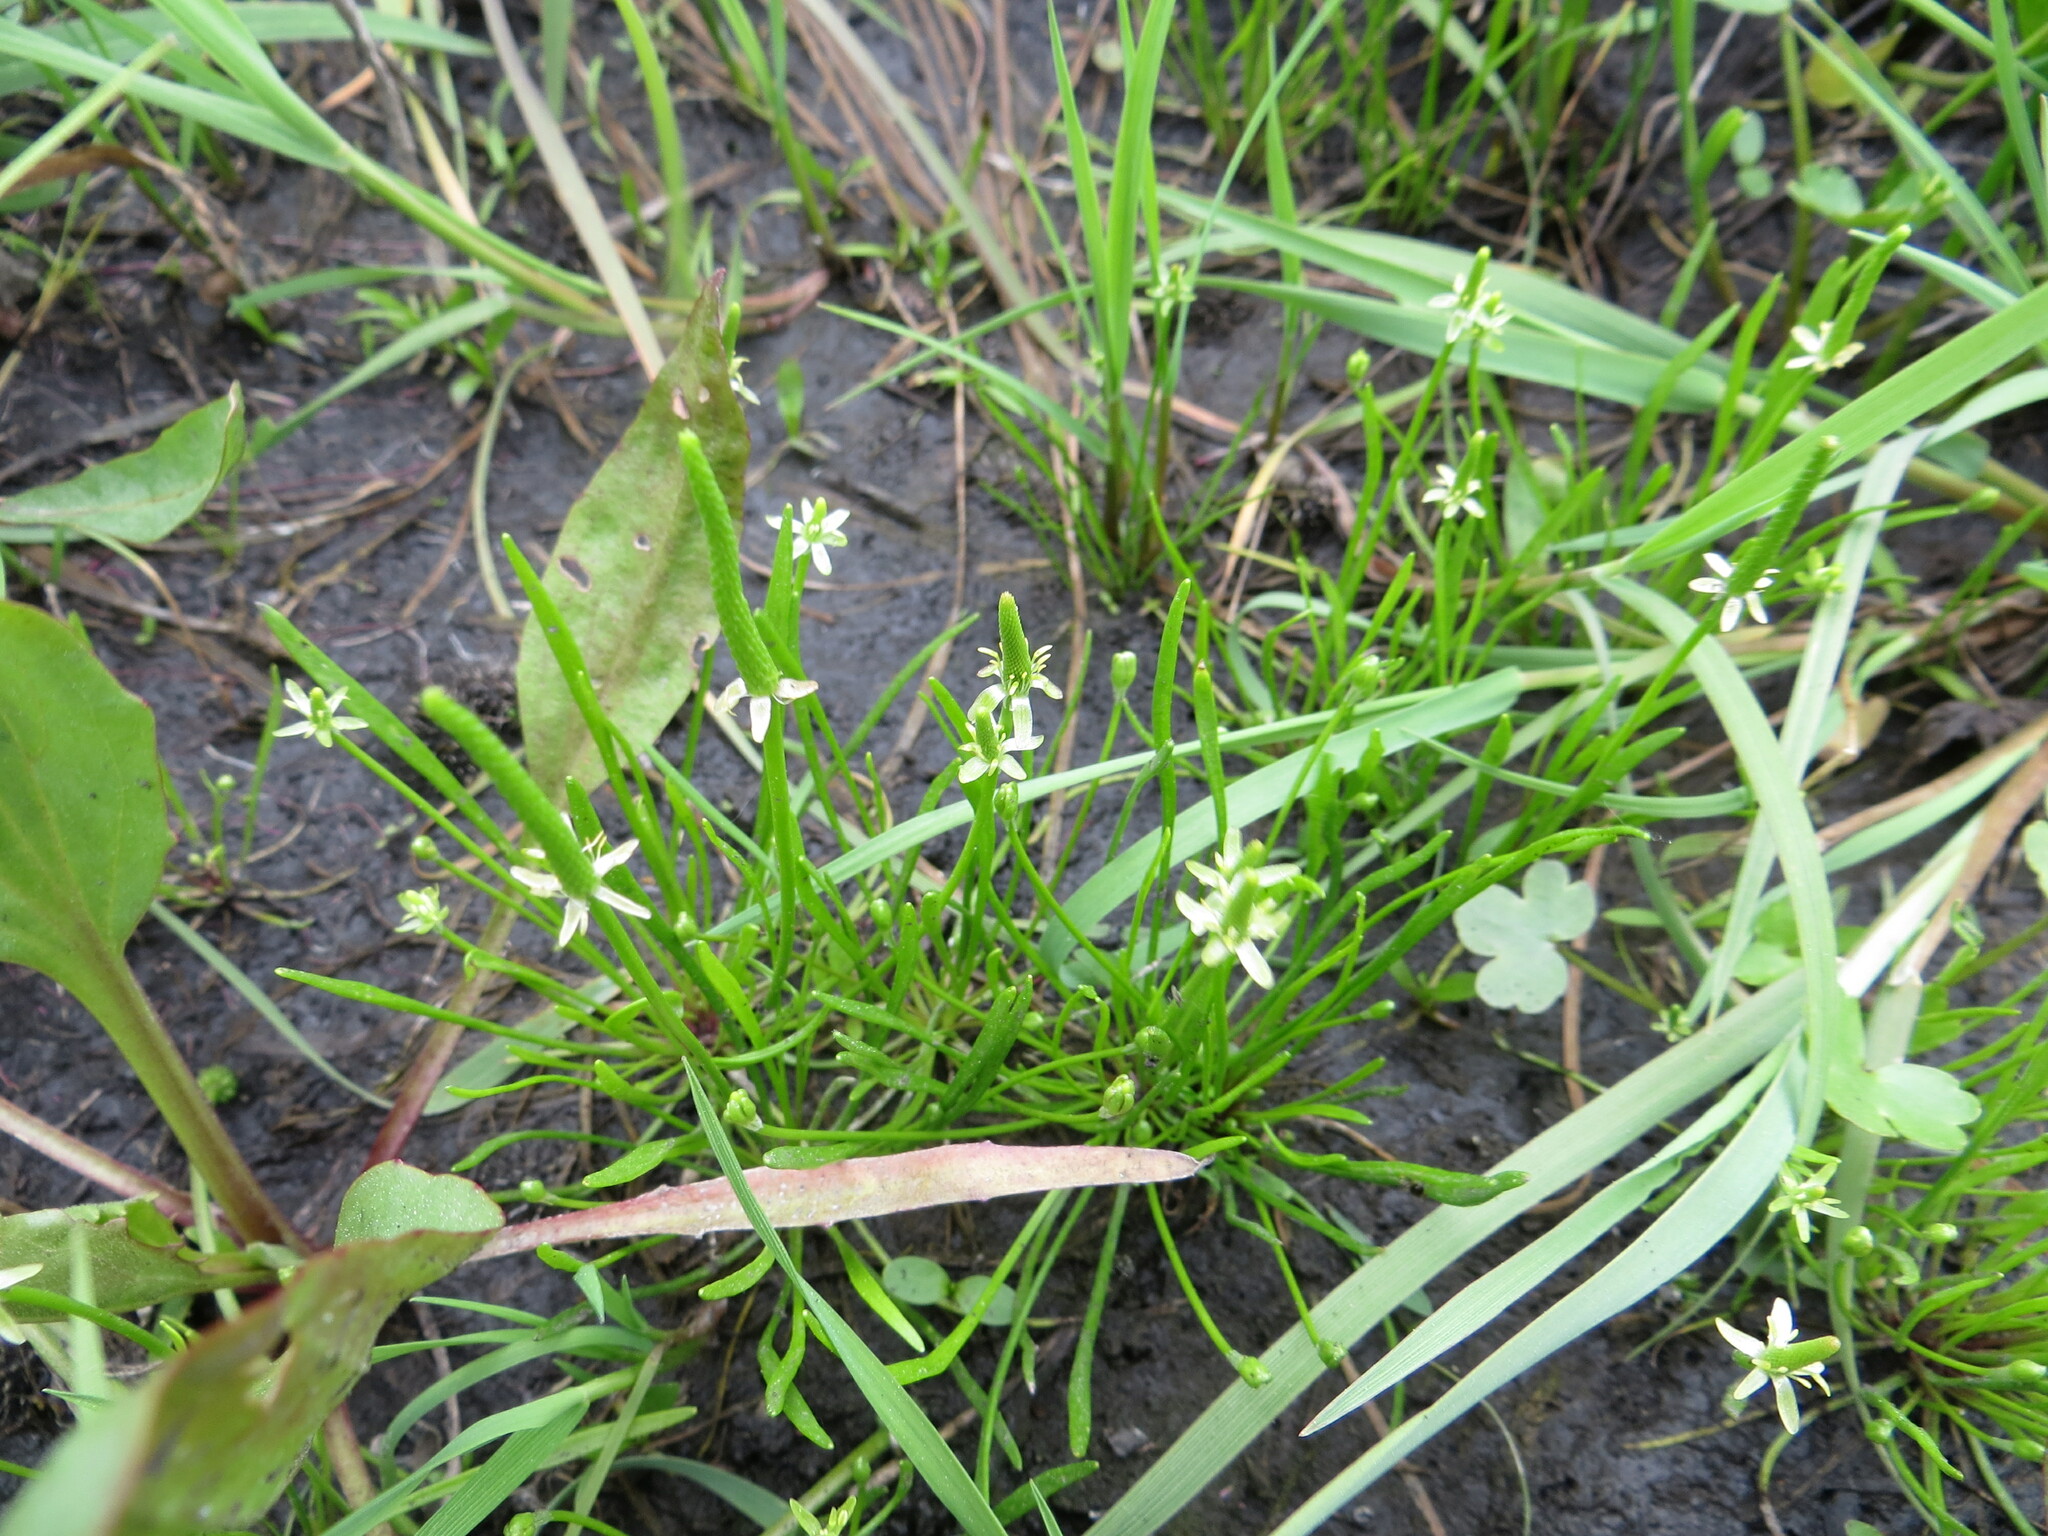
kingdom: Plantae
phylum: Tracheophyta
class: Magnoliopsida
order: Ranunculales
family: Ranunculaceae
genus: Myosurus
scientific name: Myosurus minimus
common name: Mousetail
